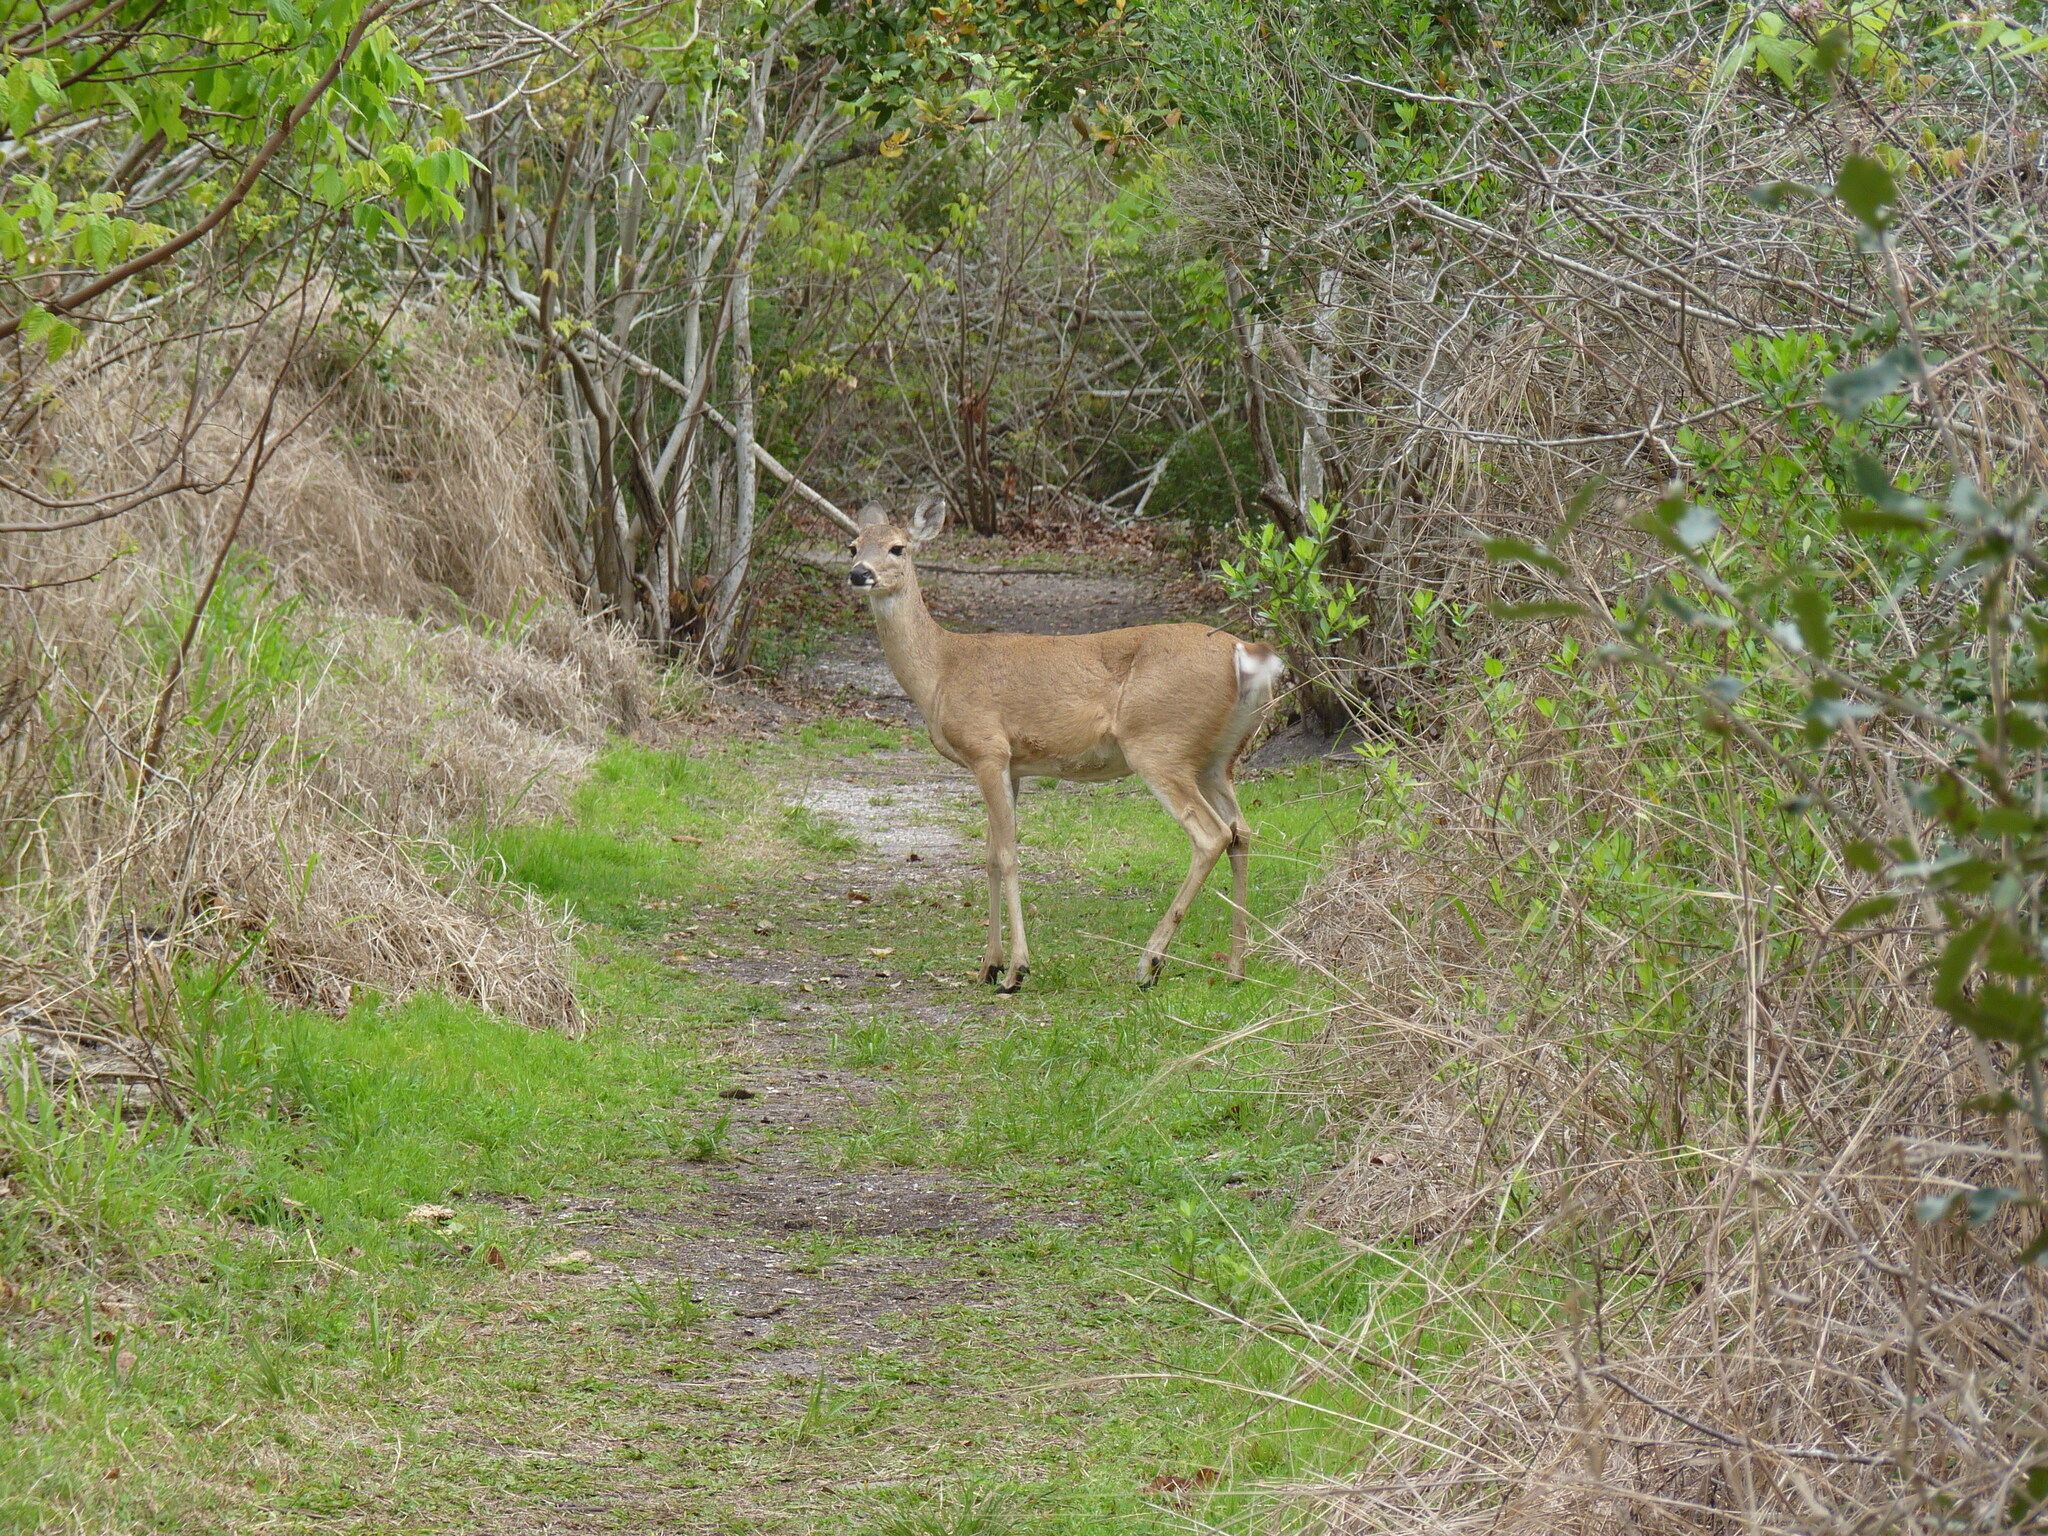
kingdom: Animalia
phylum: Chordata
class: Mammalia
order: Artiodactyla
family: Cervidae
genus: Odocoileus
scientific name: Odocoileus virginianus
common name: White-tailed deer
